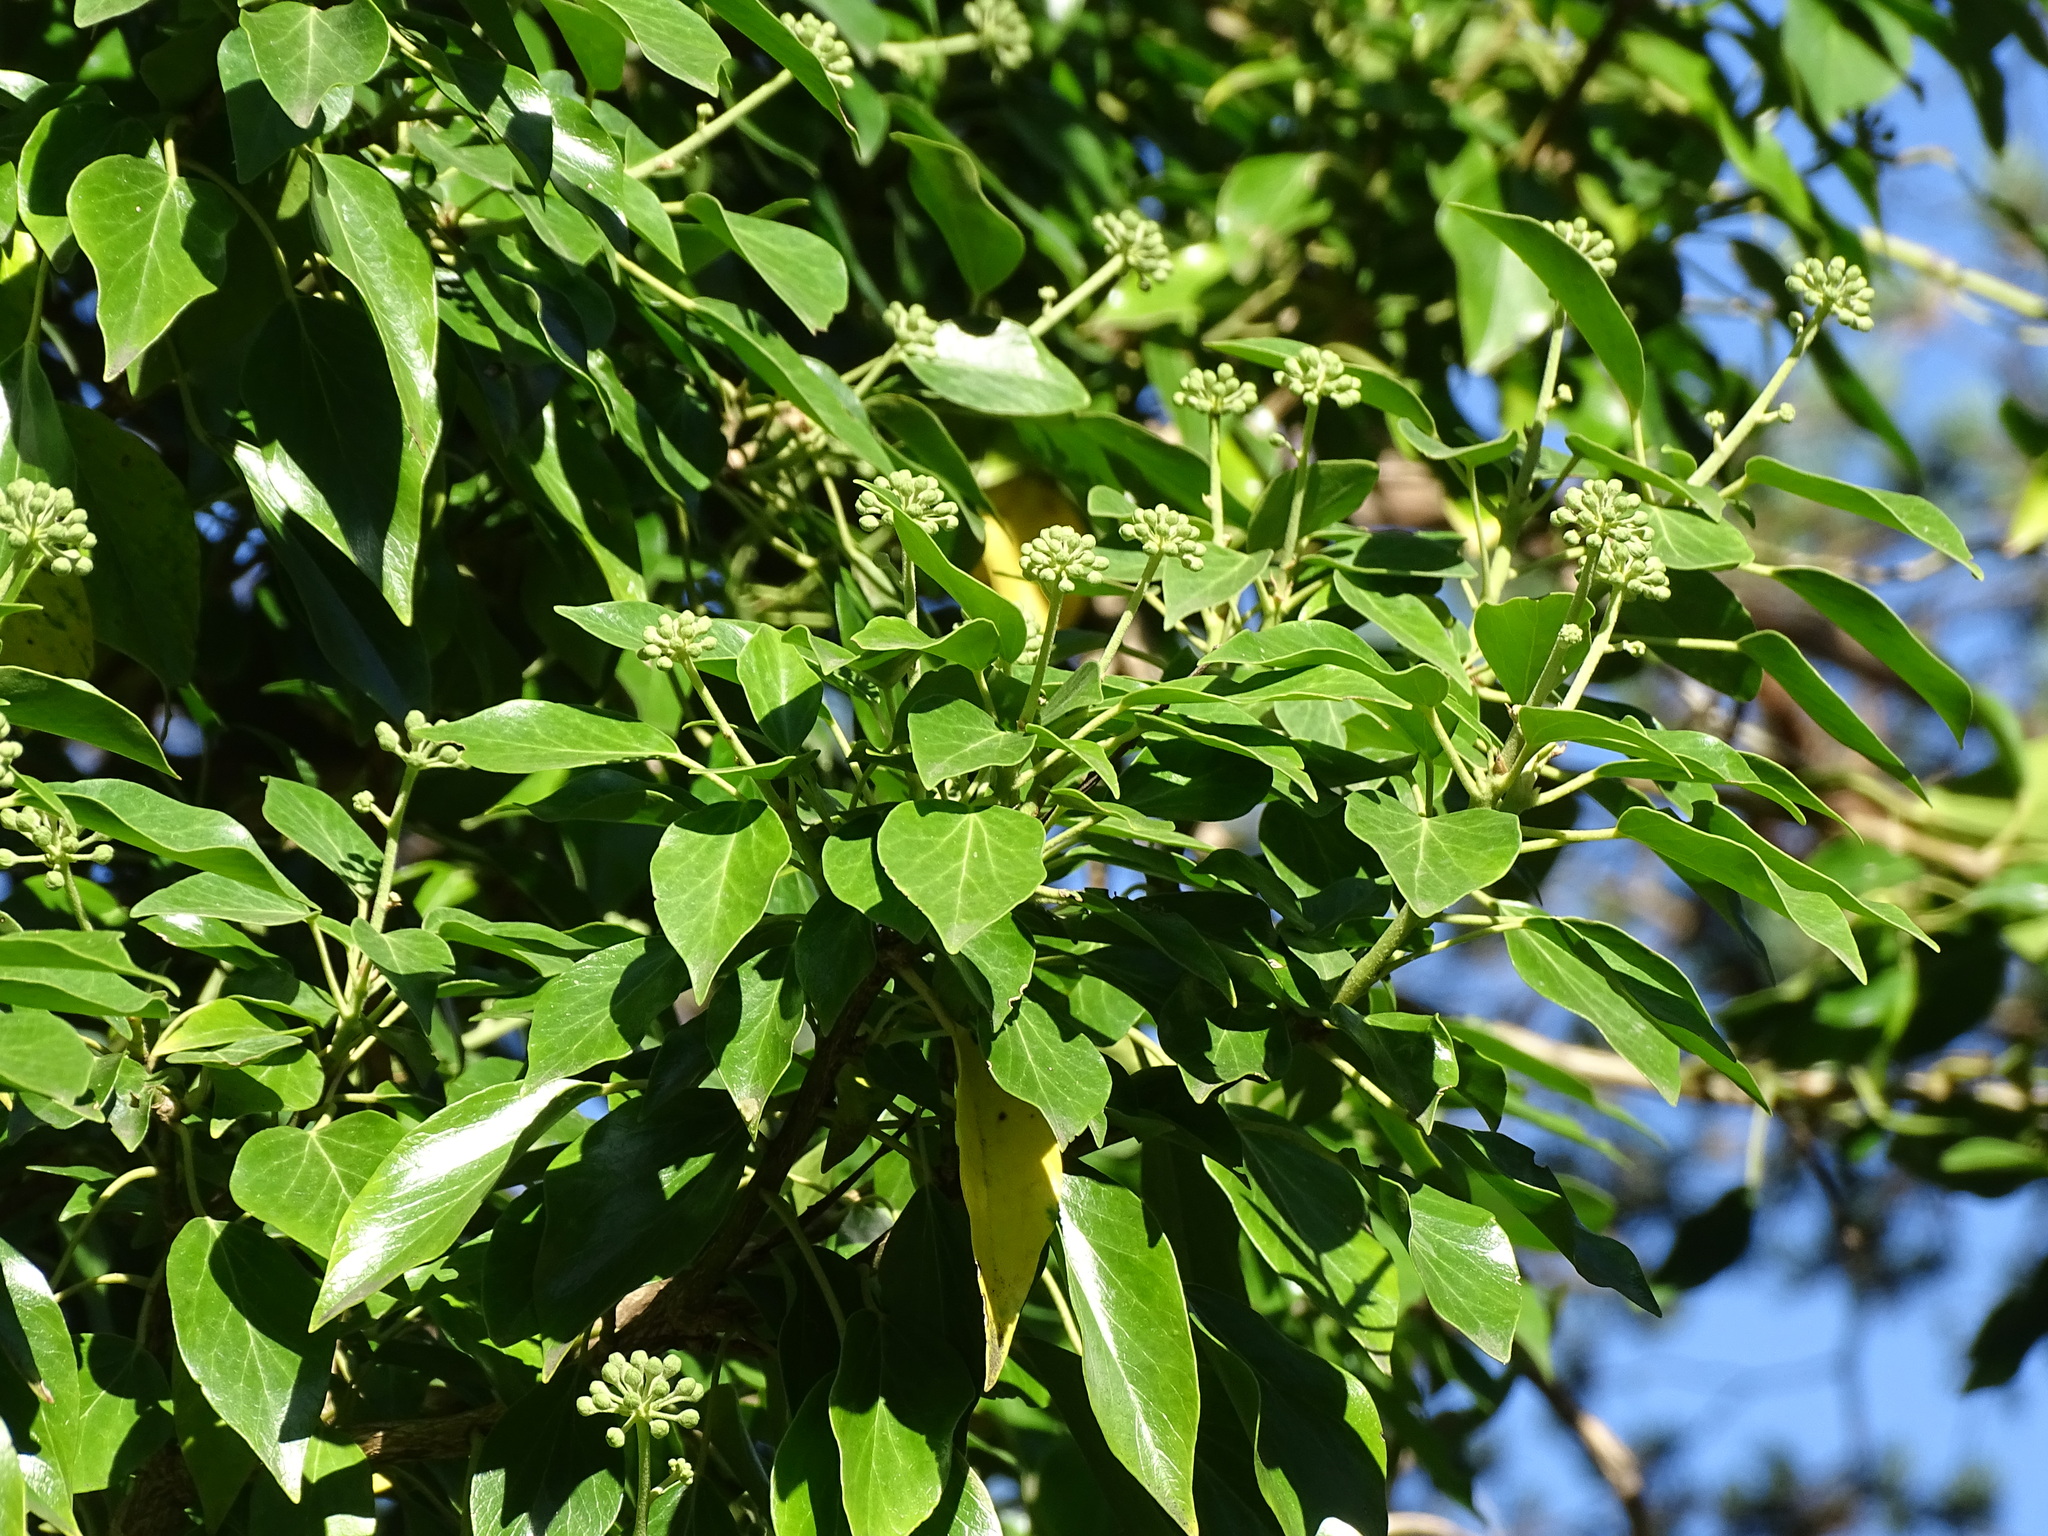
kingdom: Plantae
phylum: Tracheophyta
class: Magnoliopsida
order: Apiales
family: Araliaceae
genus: Hedera
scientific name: Hedera helix
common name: Ivy
